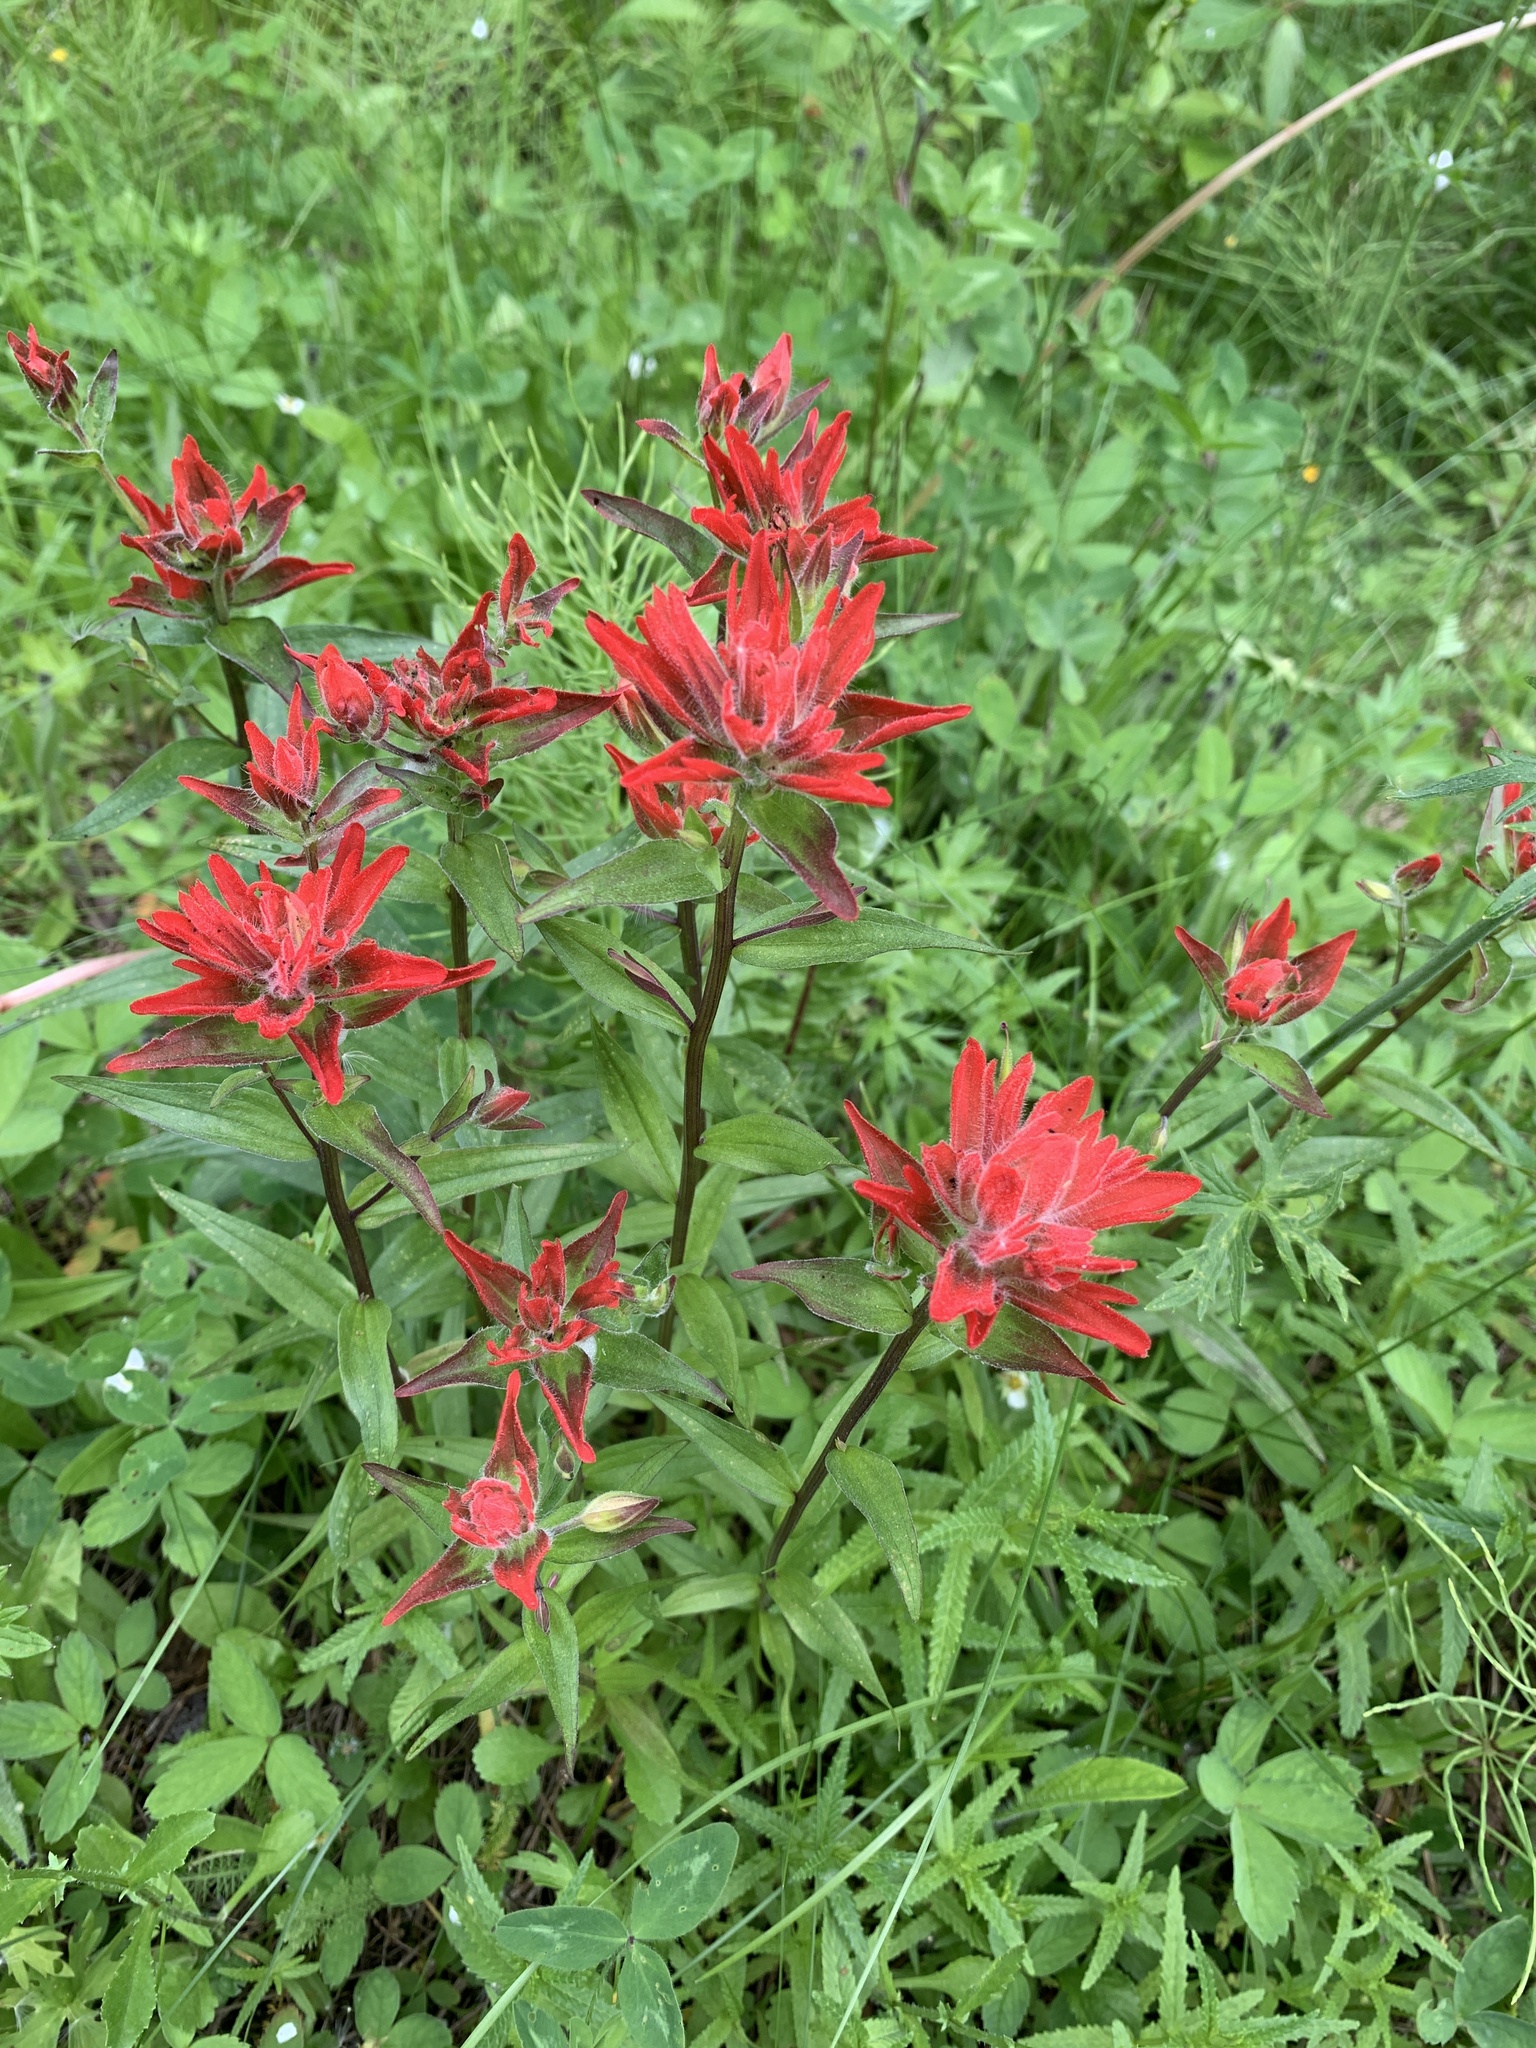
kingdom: Plantae
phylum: Tracheophyta
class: Magnoliopsida
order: Lamiales
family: Orobanchaceae
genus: Castilleja
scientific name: Castilleja miniata
